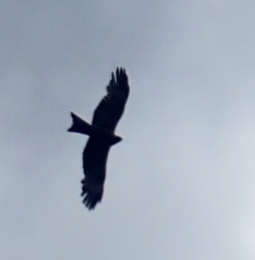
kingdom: Animalia
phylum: Chordata
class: Aves
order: Accipitriformes
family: Accipitridae
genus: Milvus
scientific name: Milvus migrans
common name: Black kite
